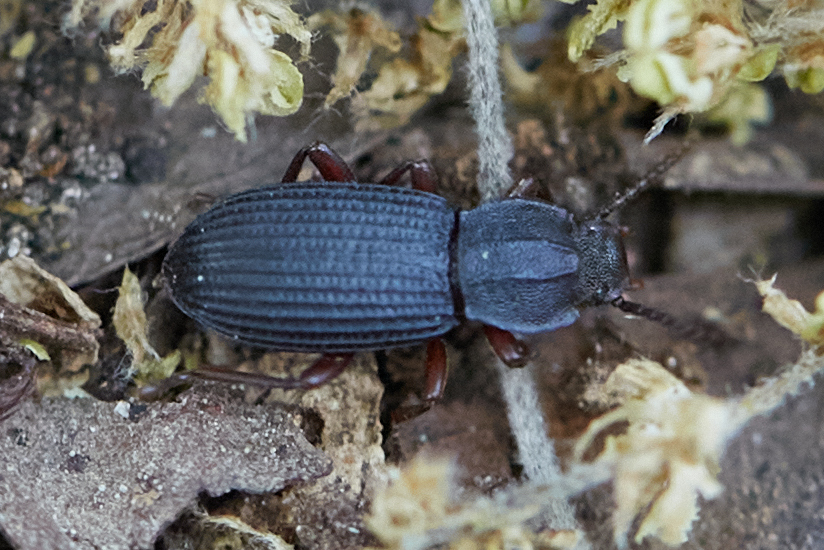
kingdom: Animalia
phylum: Arthropoda
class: Insecta
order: Coleoptera
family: Tenebrionidae
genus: Eulabis
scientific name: Eulabis bicarinata
